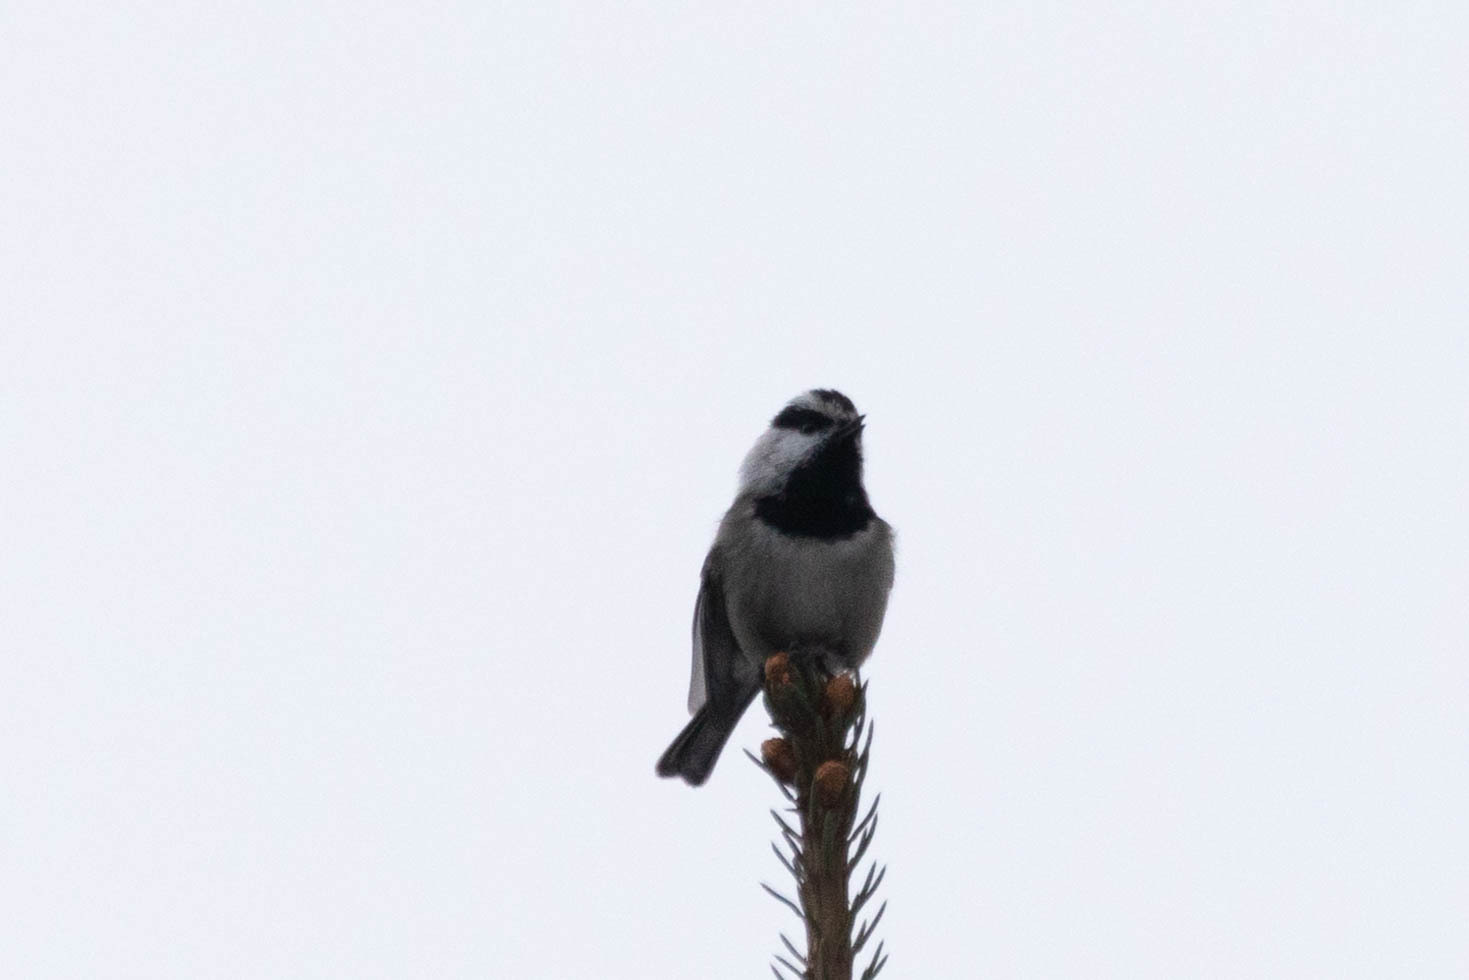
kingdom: Animalia
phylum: Chordata
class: Aves
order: Passeriformes
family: Paridae
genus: Poecile
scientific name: Poecile gambeli
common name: Mountain chickadee
